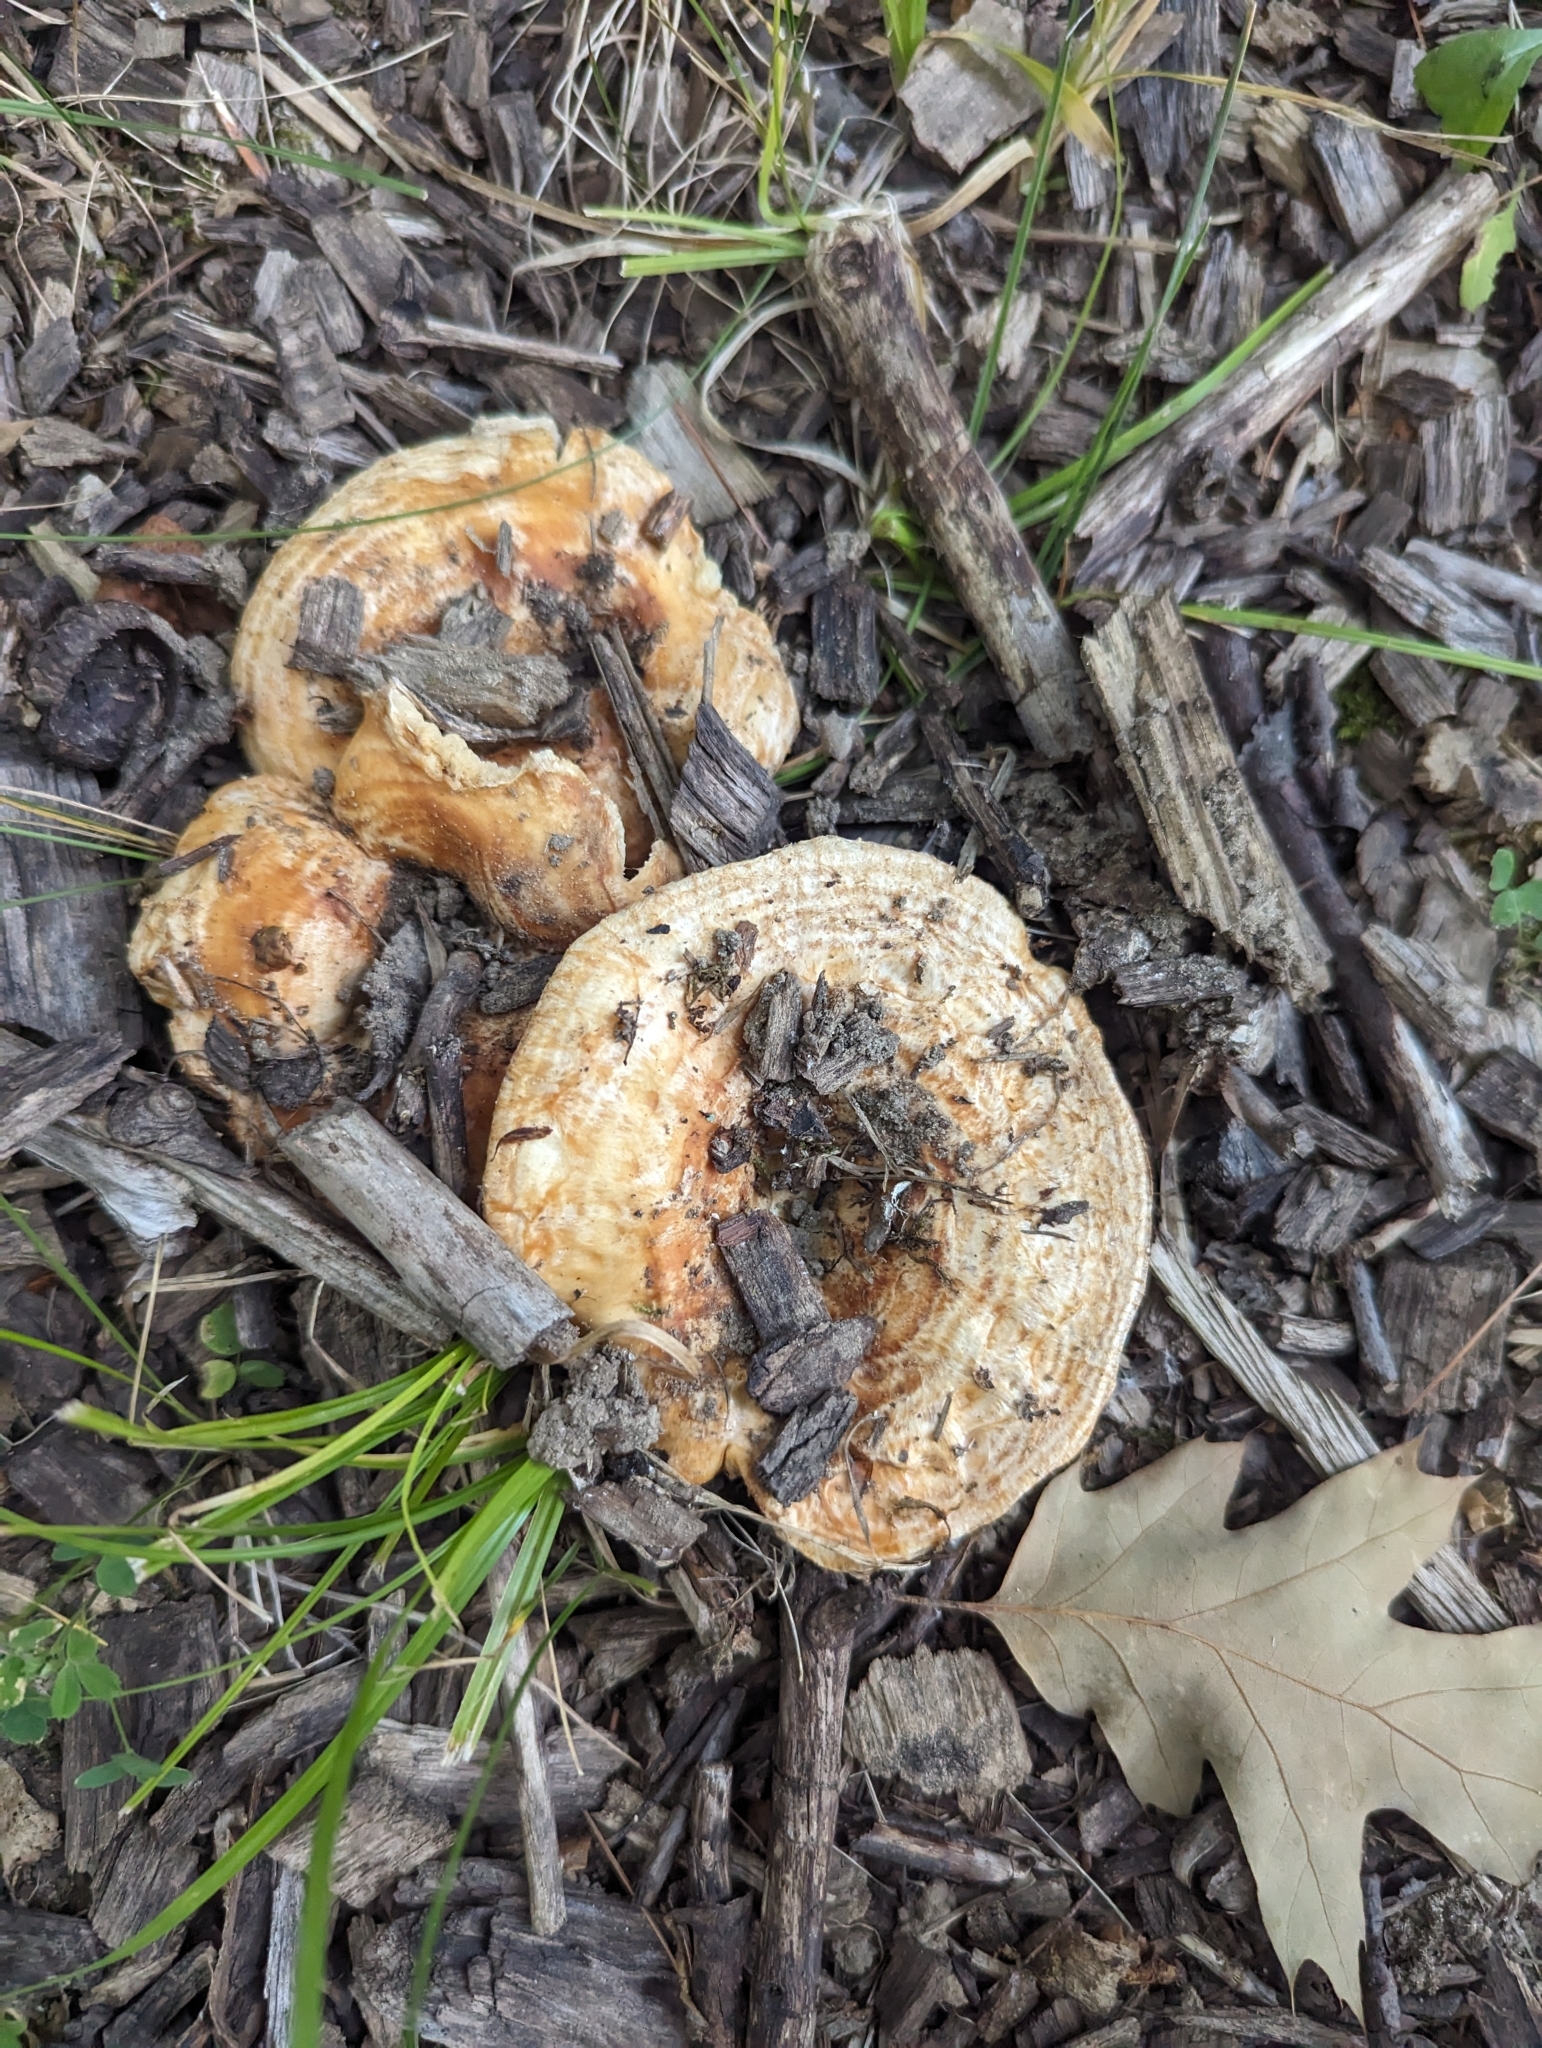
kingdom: Fungi
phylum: Basidiomycota
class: Agaricomycetes
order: Russulales
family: Russulaceae
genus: Lactarius
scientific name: Lactarius psammicola
